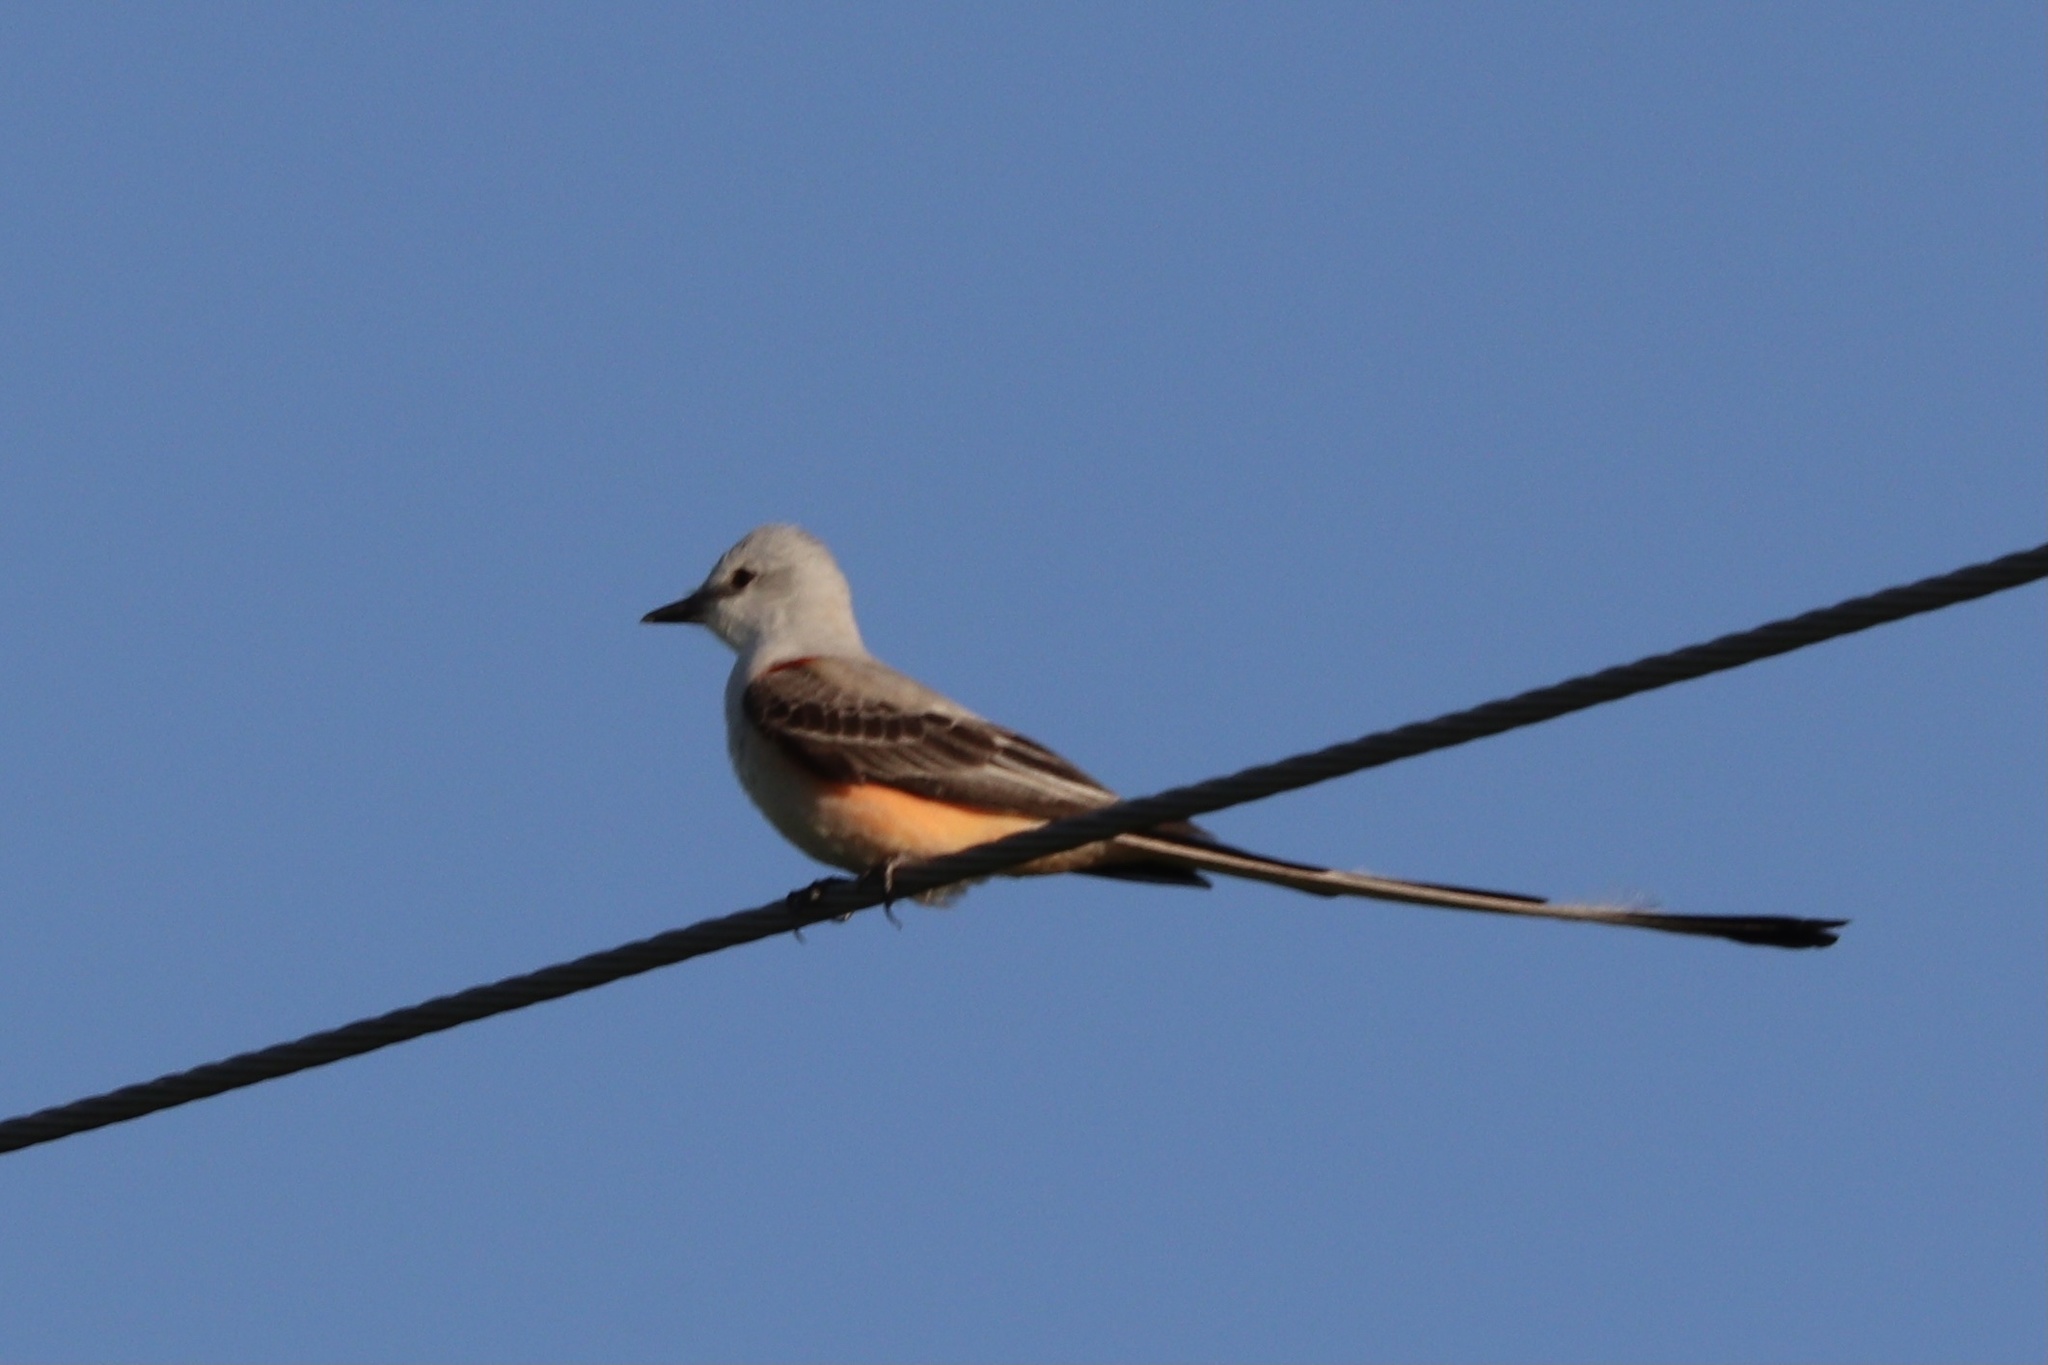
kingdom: Animalia
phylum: Chordata
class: Aves
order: Passeriformes
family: Tyrannidae
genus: Tyrannus
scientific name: Tyrannus forficatus
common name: Scissor-tailed flycatcher
